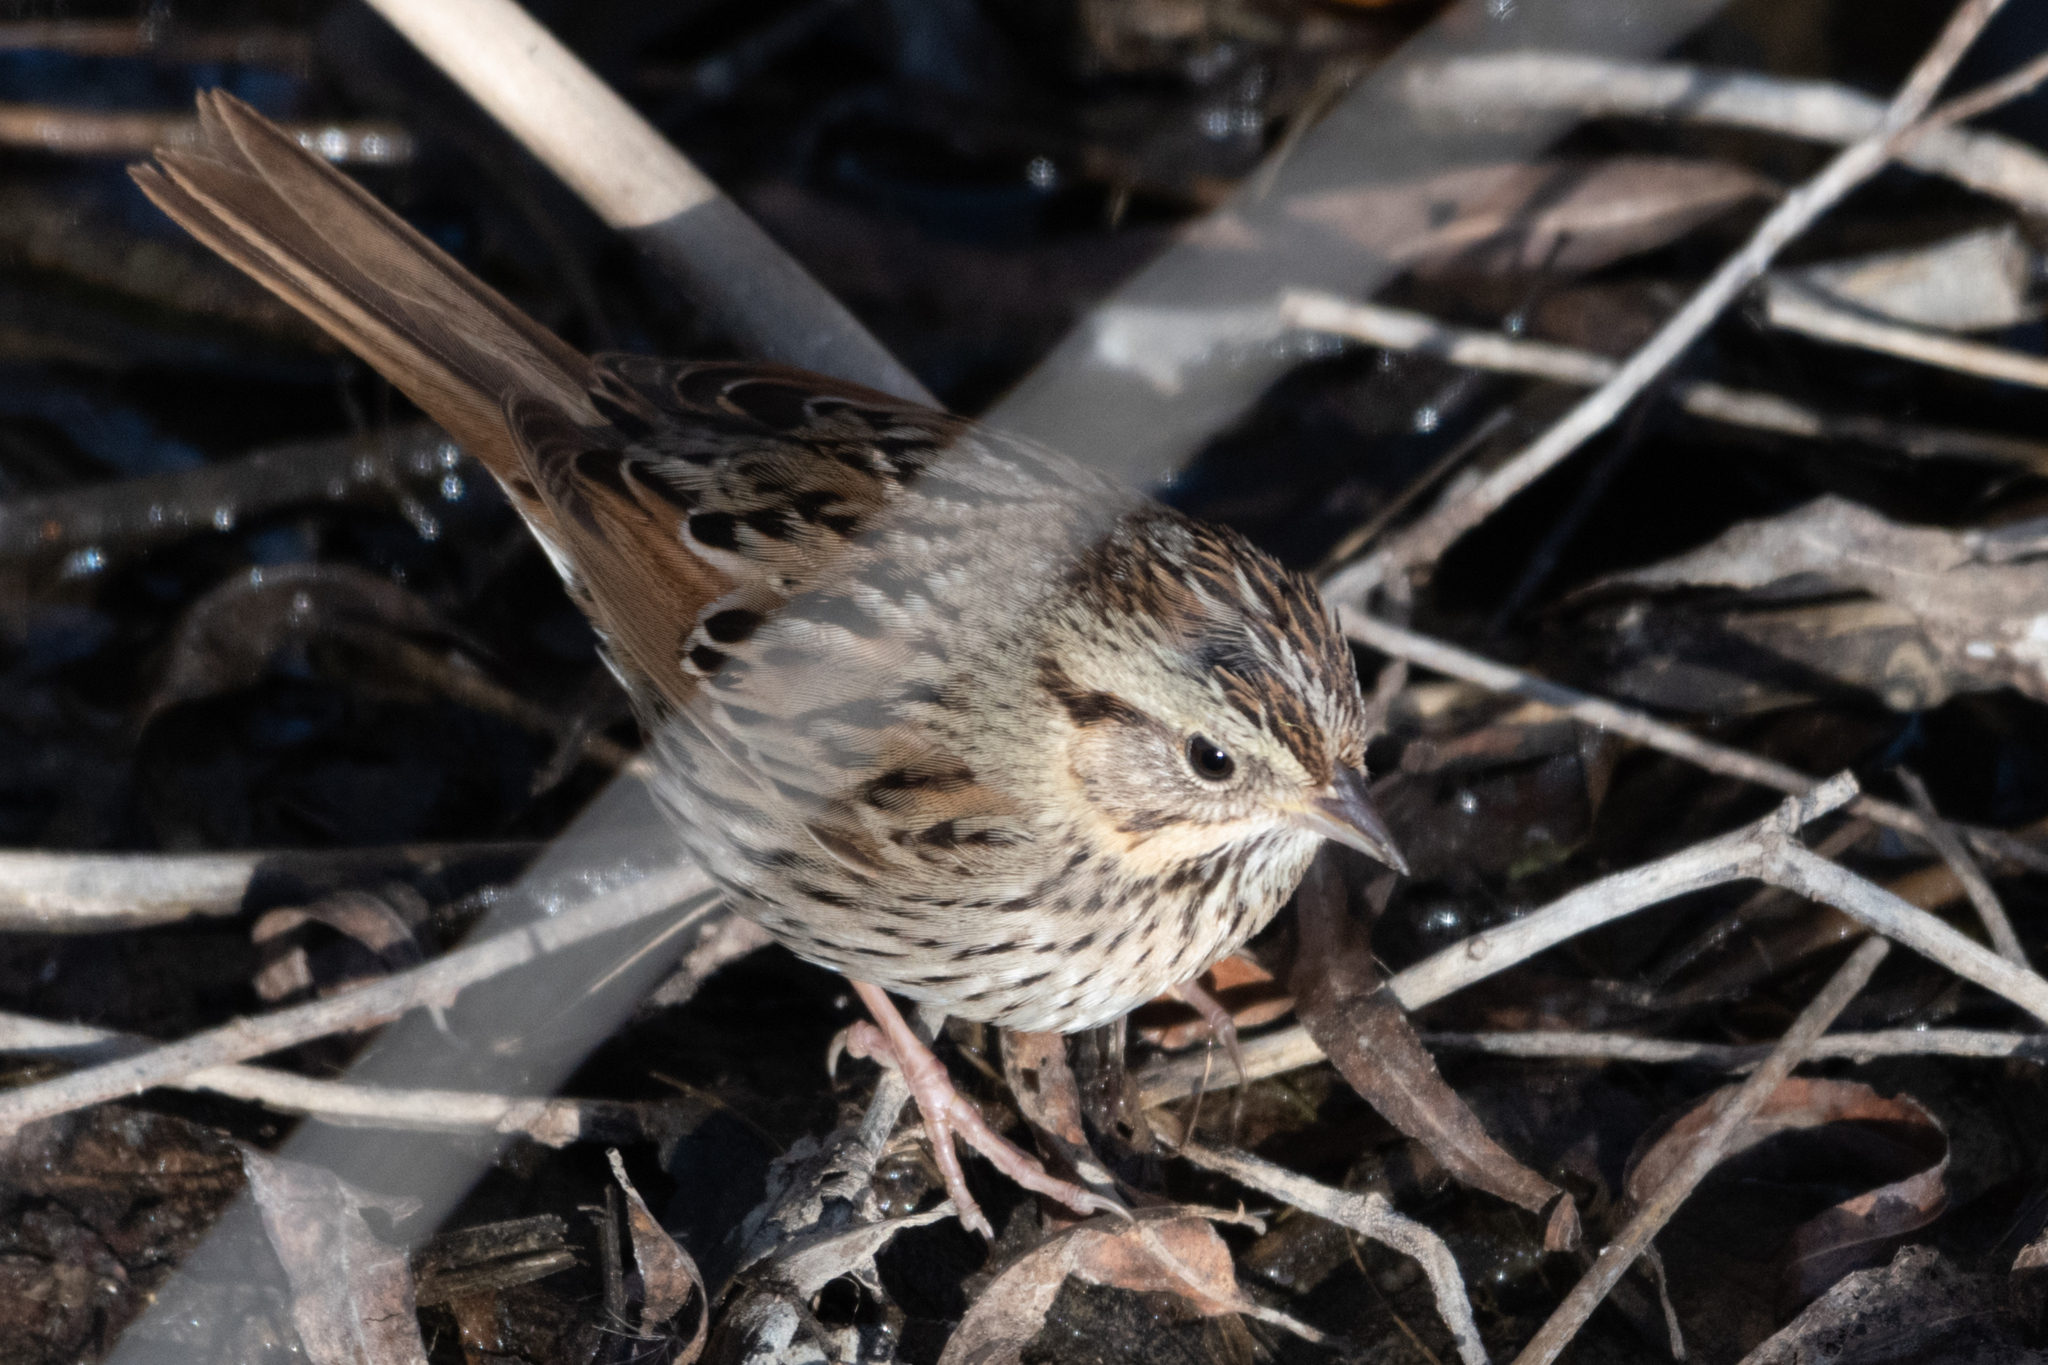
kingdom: Animalia
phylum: Chordata
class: Aves
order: Passeriformes
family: Passerellidae
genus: Melospiza
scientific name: Melospiza lincolnii
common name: Lincoln's sparrow
